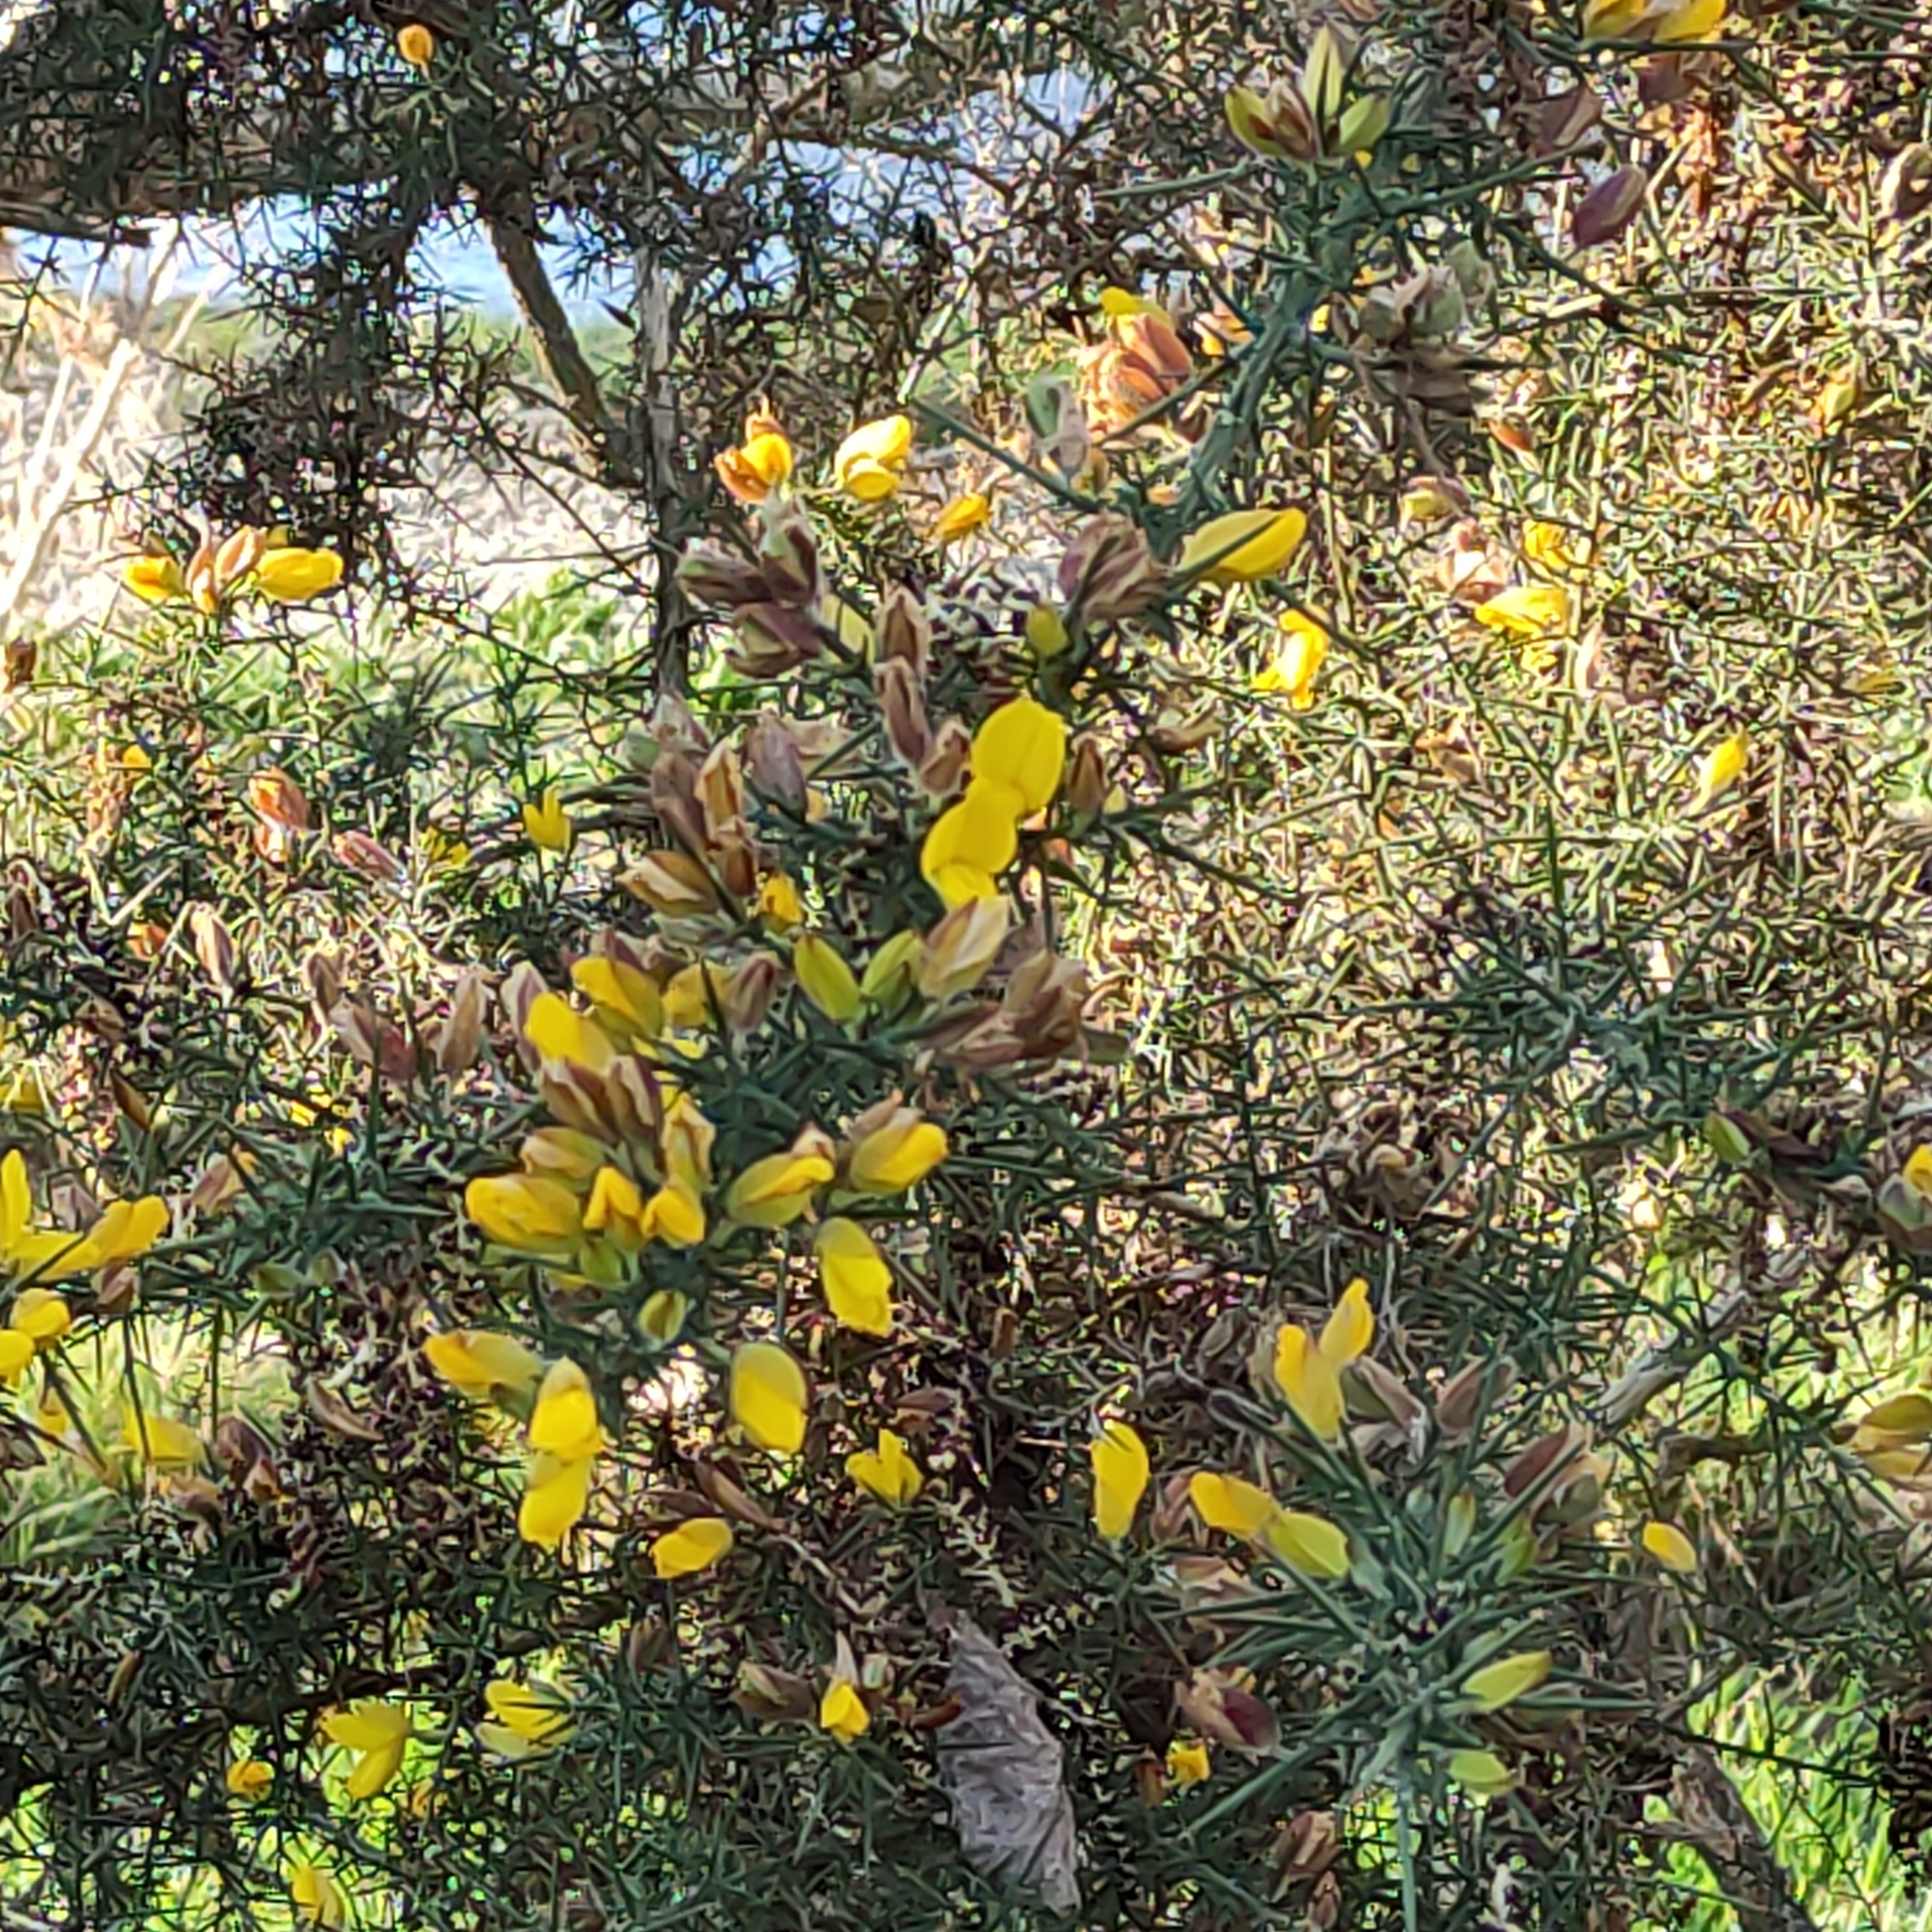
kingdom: Plantae
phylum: Tracheophyta
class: Magnoliopsida
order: Fabales
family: Fabaceae
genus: Ulex
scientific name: Ulex europaeus
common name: Common gorse
